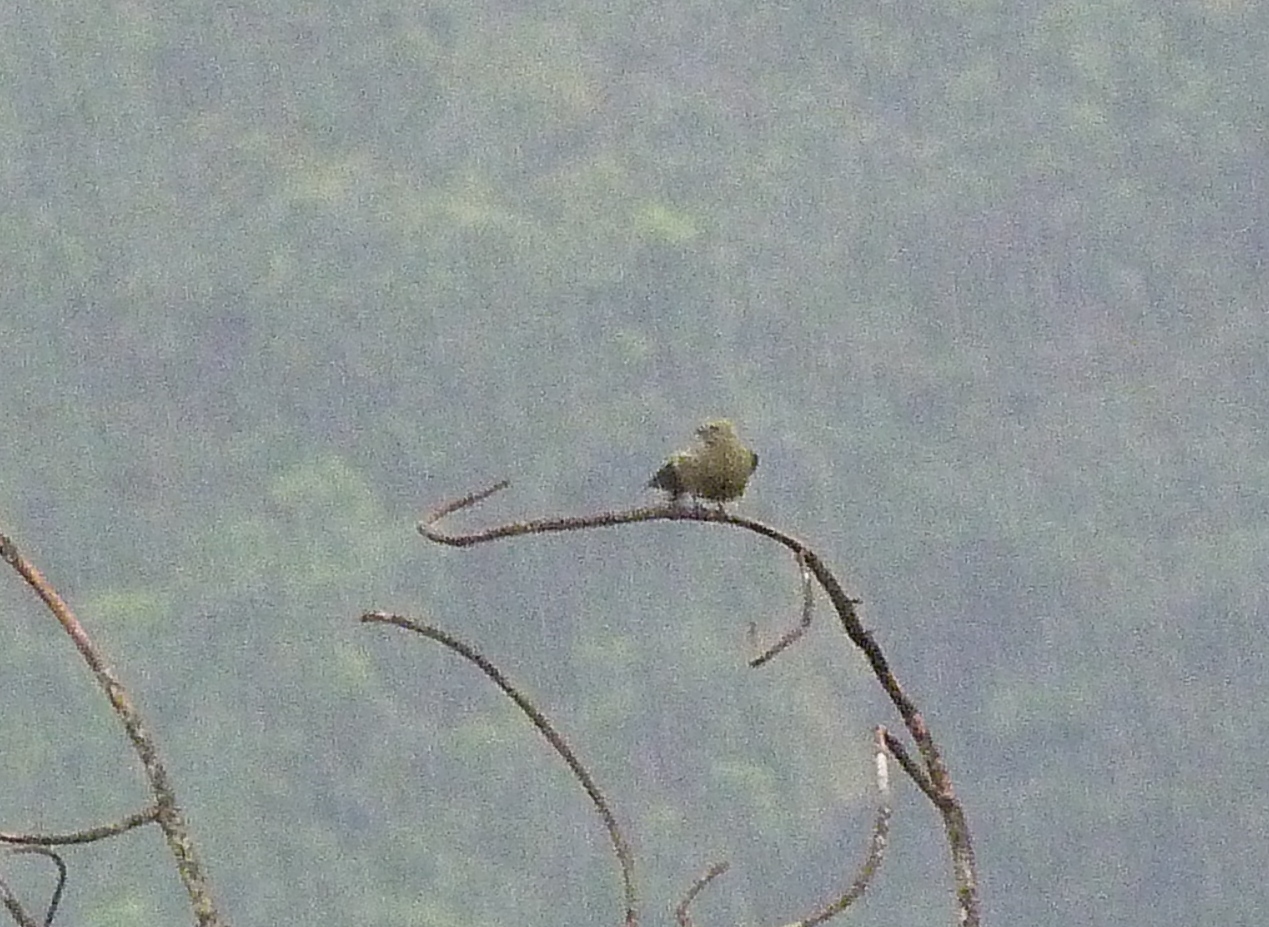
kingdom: Animalia
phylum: Chordata
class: Aves
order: Passeriformes
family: Thraupidae
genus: Thraupis
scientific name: Thraupis palmarum
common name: Palm tanager
